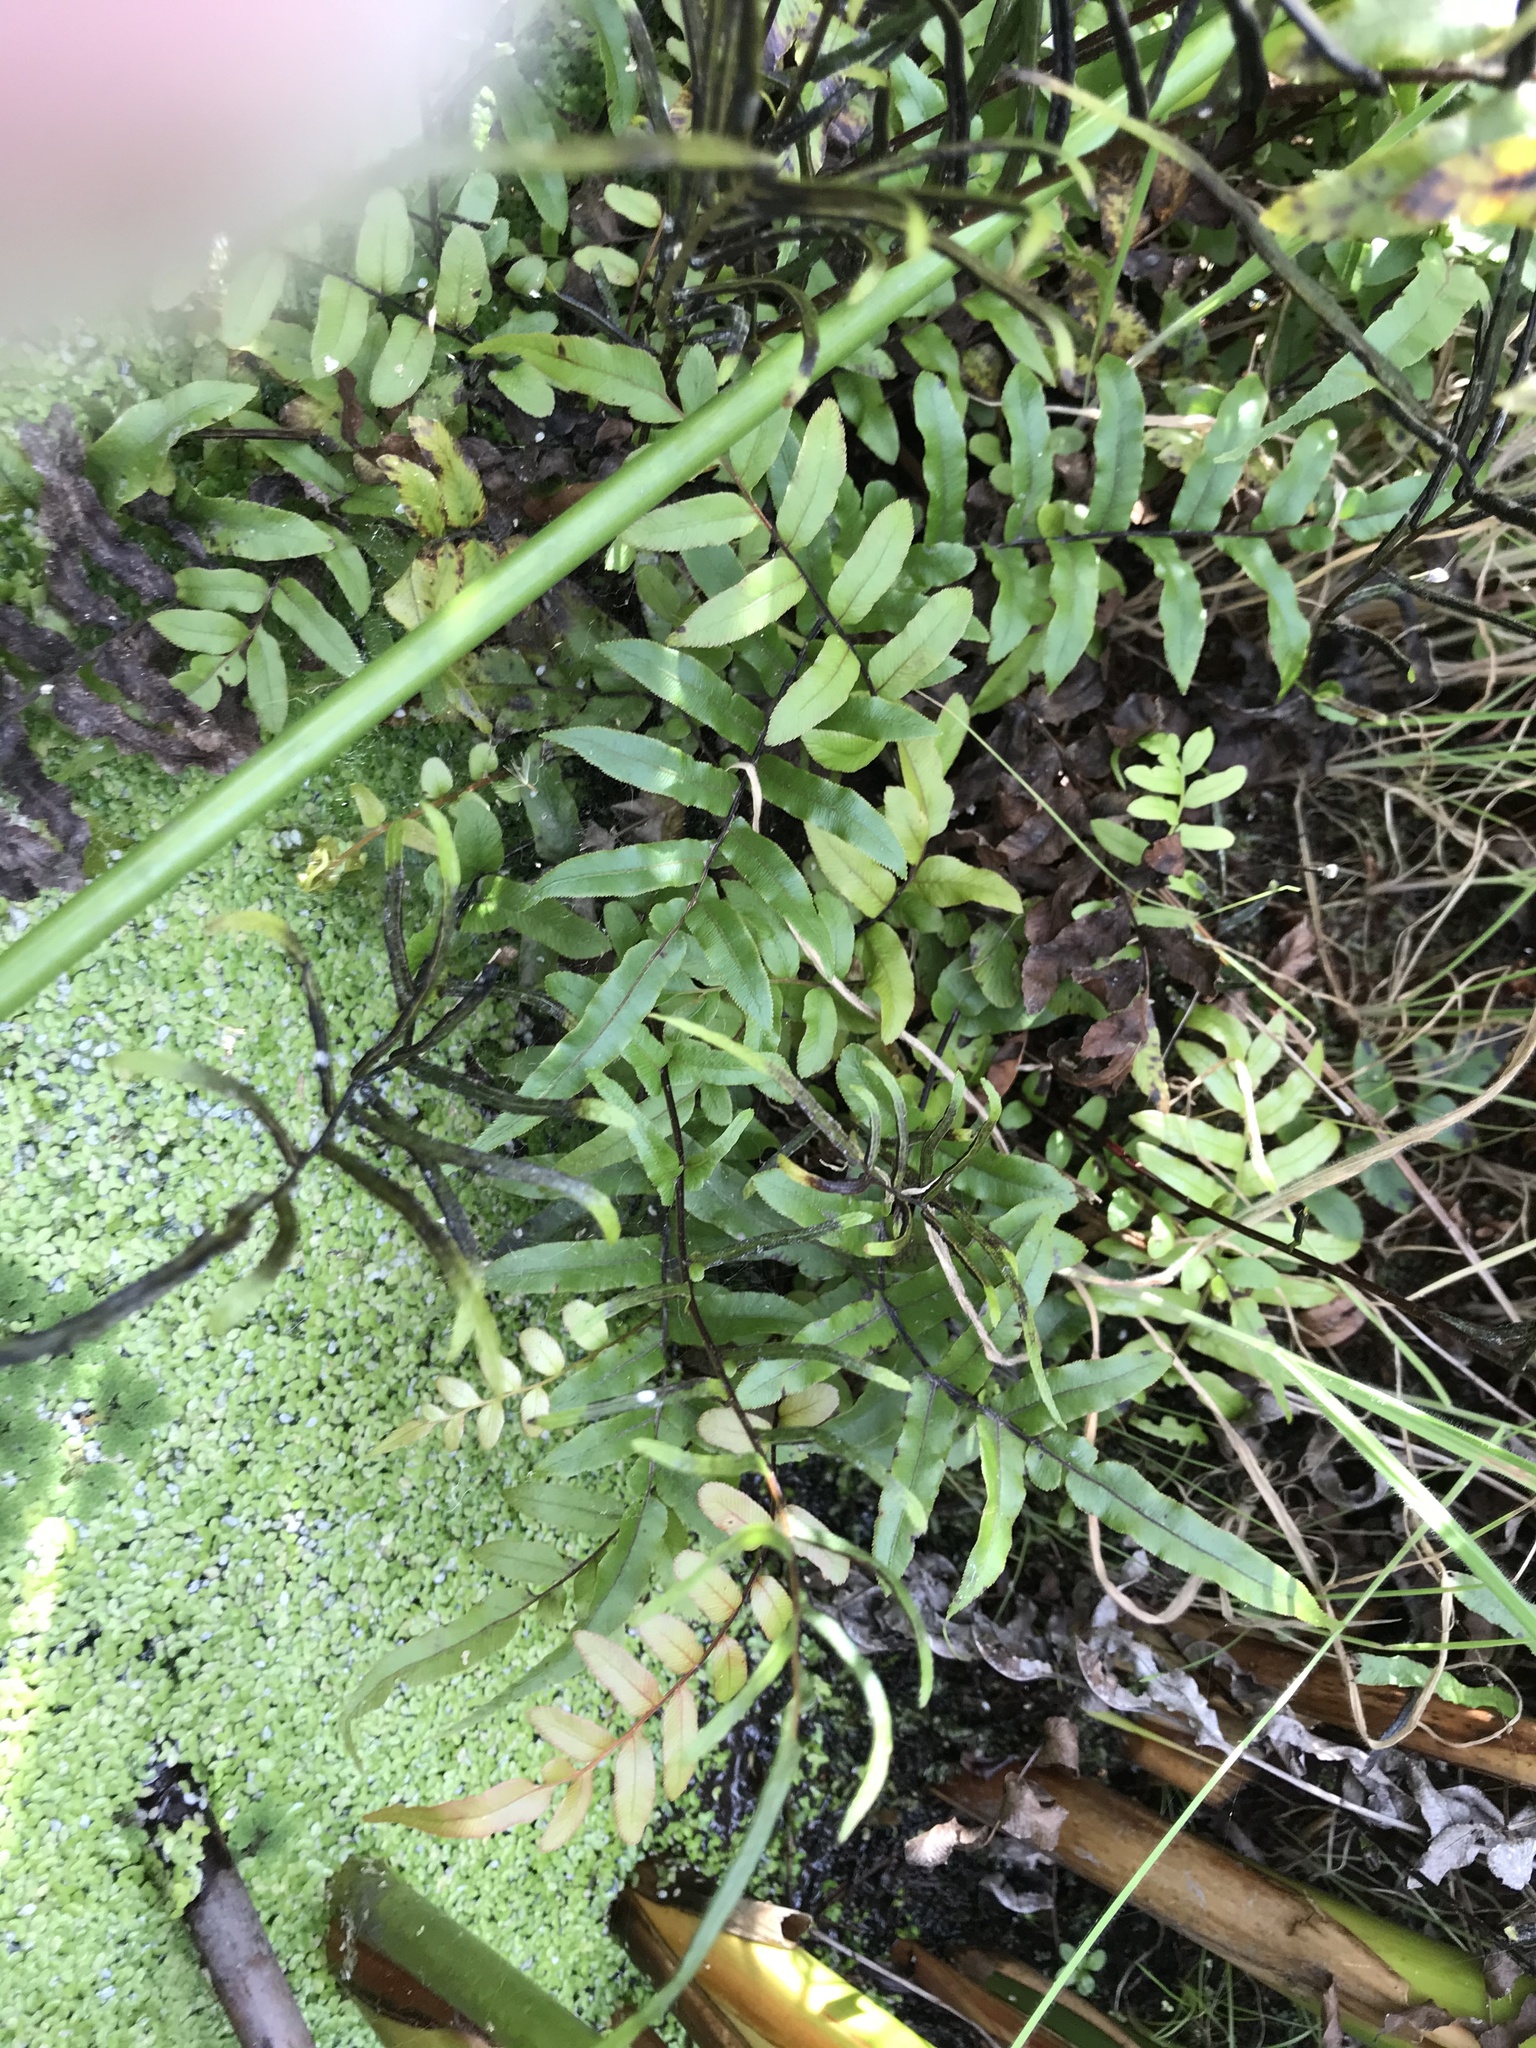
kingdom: Plantae
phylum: Tracheophyta
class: Polypodiopsida
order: Polypodiales
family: Blechnaceae
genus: Parablechnum
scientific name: Parablechnum minus
